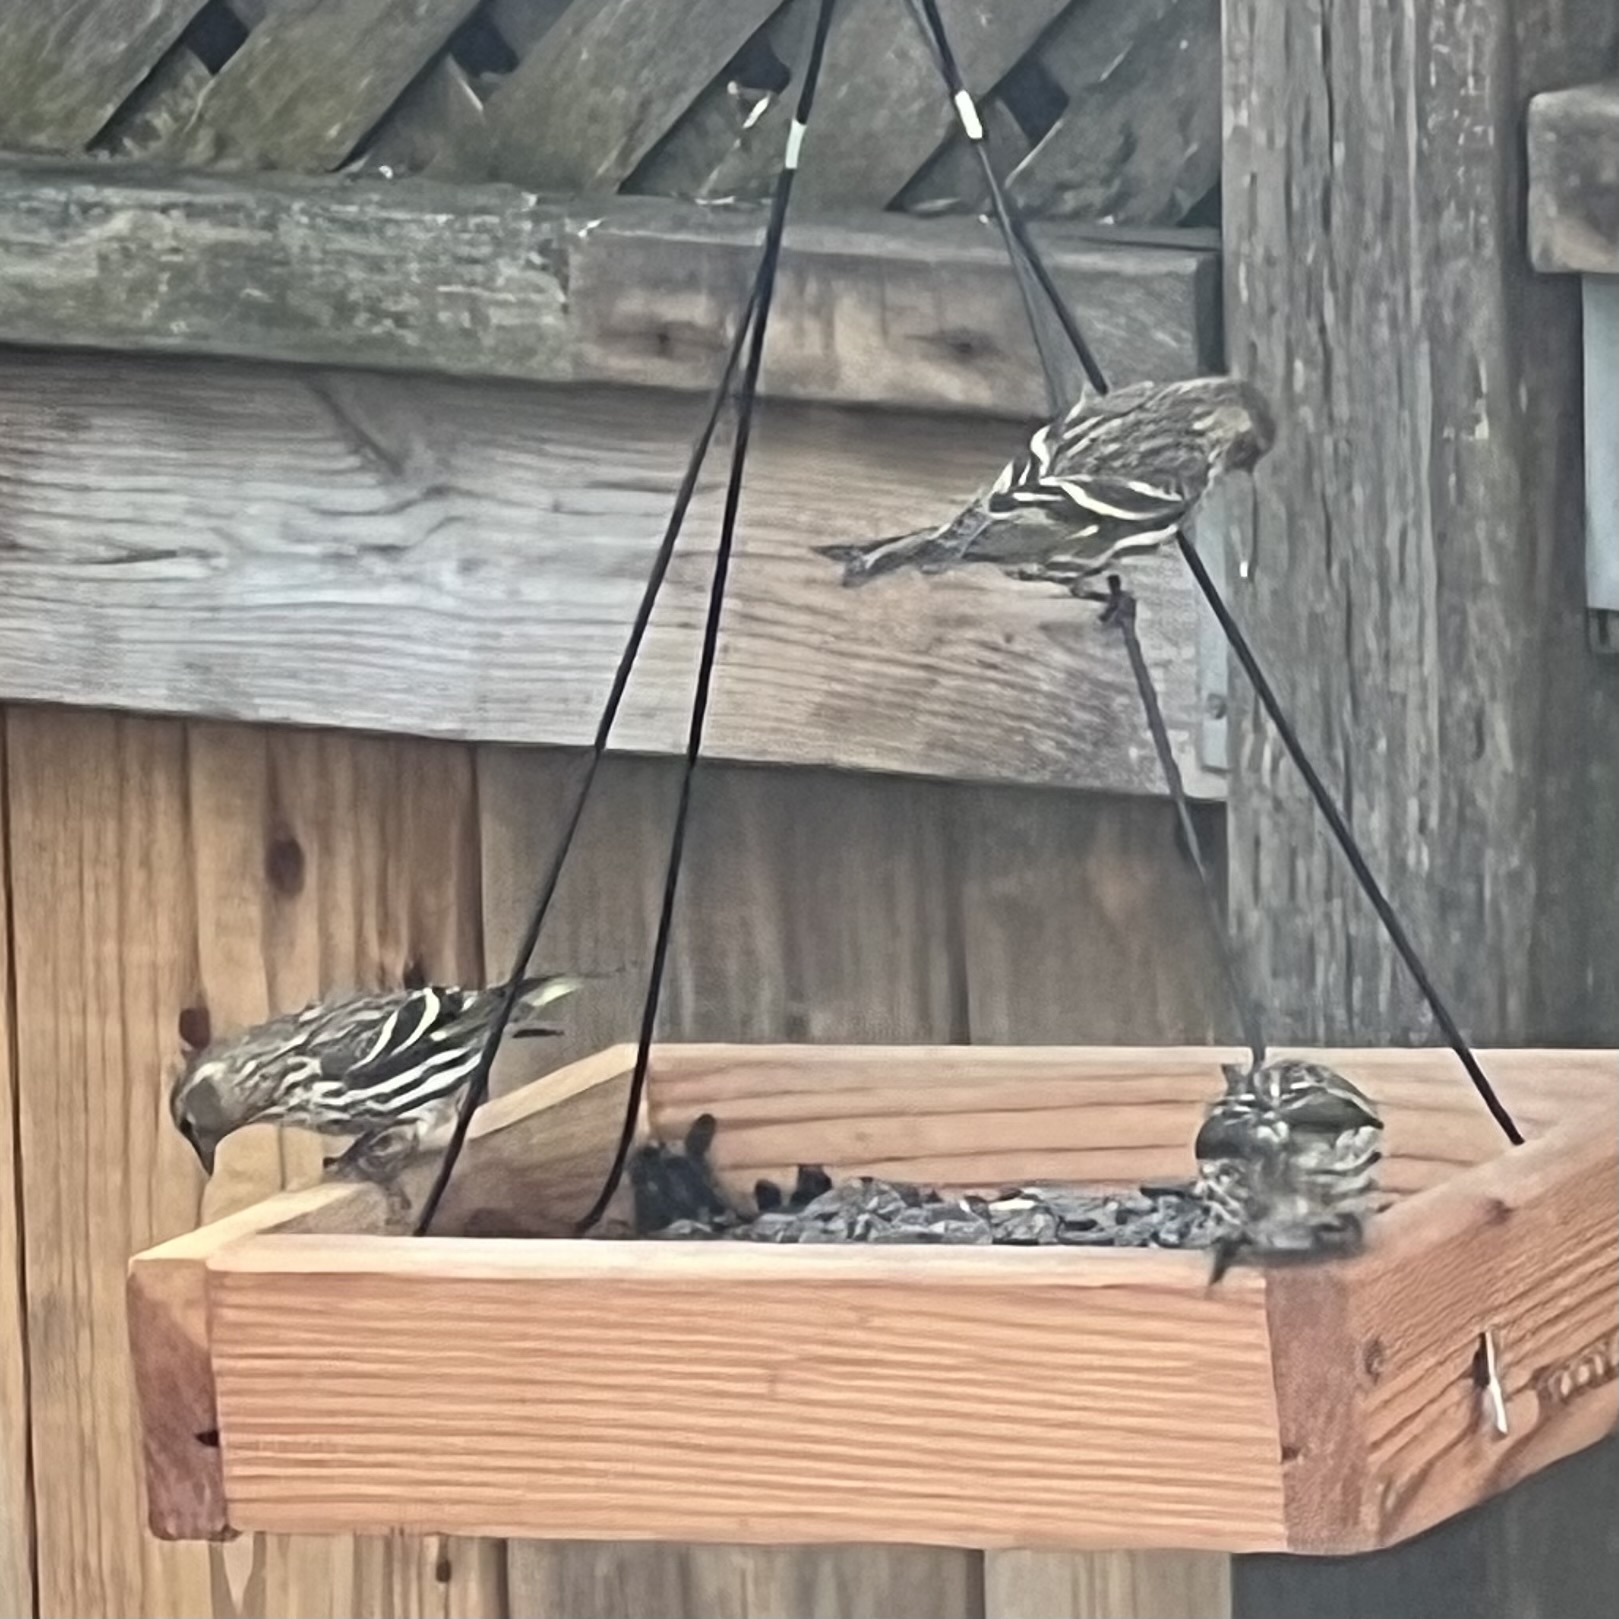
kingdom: Animalia
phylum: Chordata
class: Aves
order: Passeriformes
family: Fringillidae
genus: Spinus
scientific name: Spinus pinus
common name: Pine siskin
